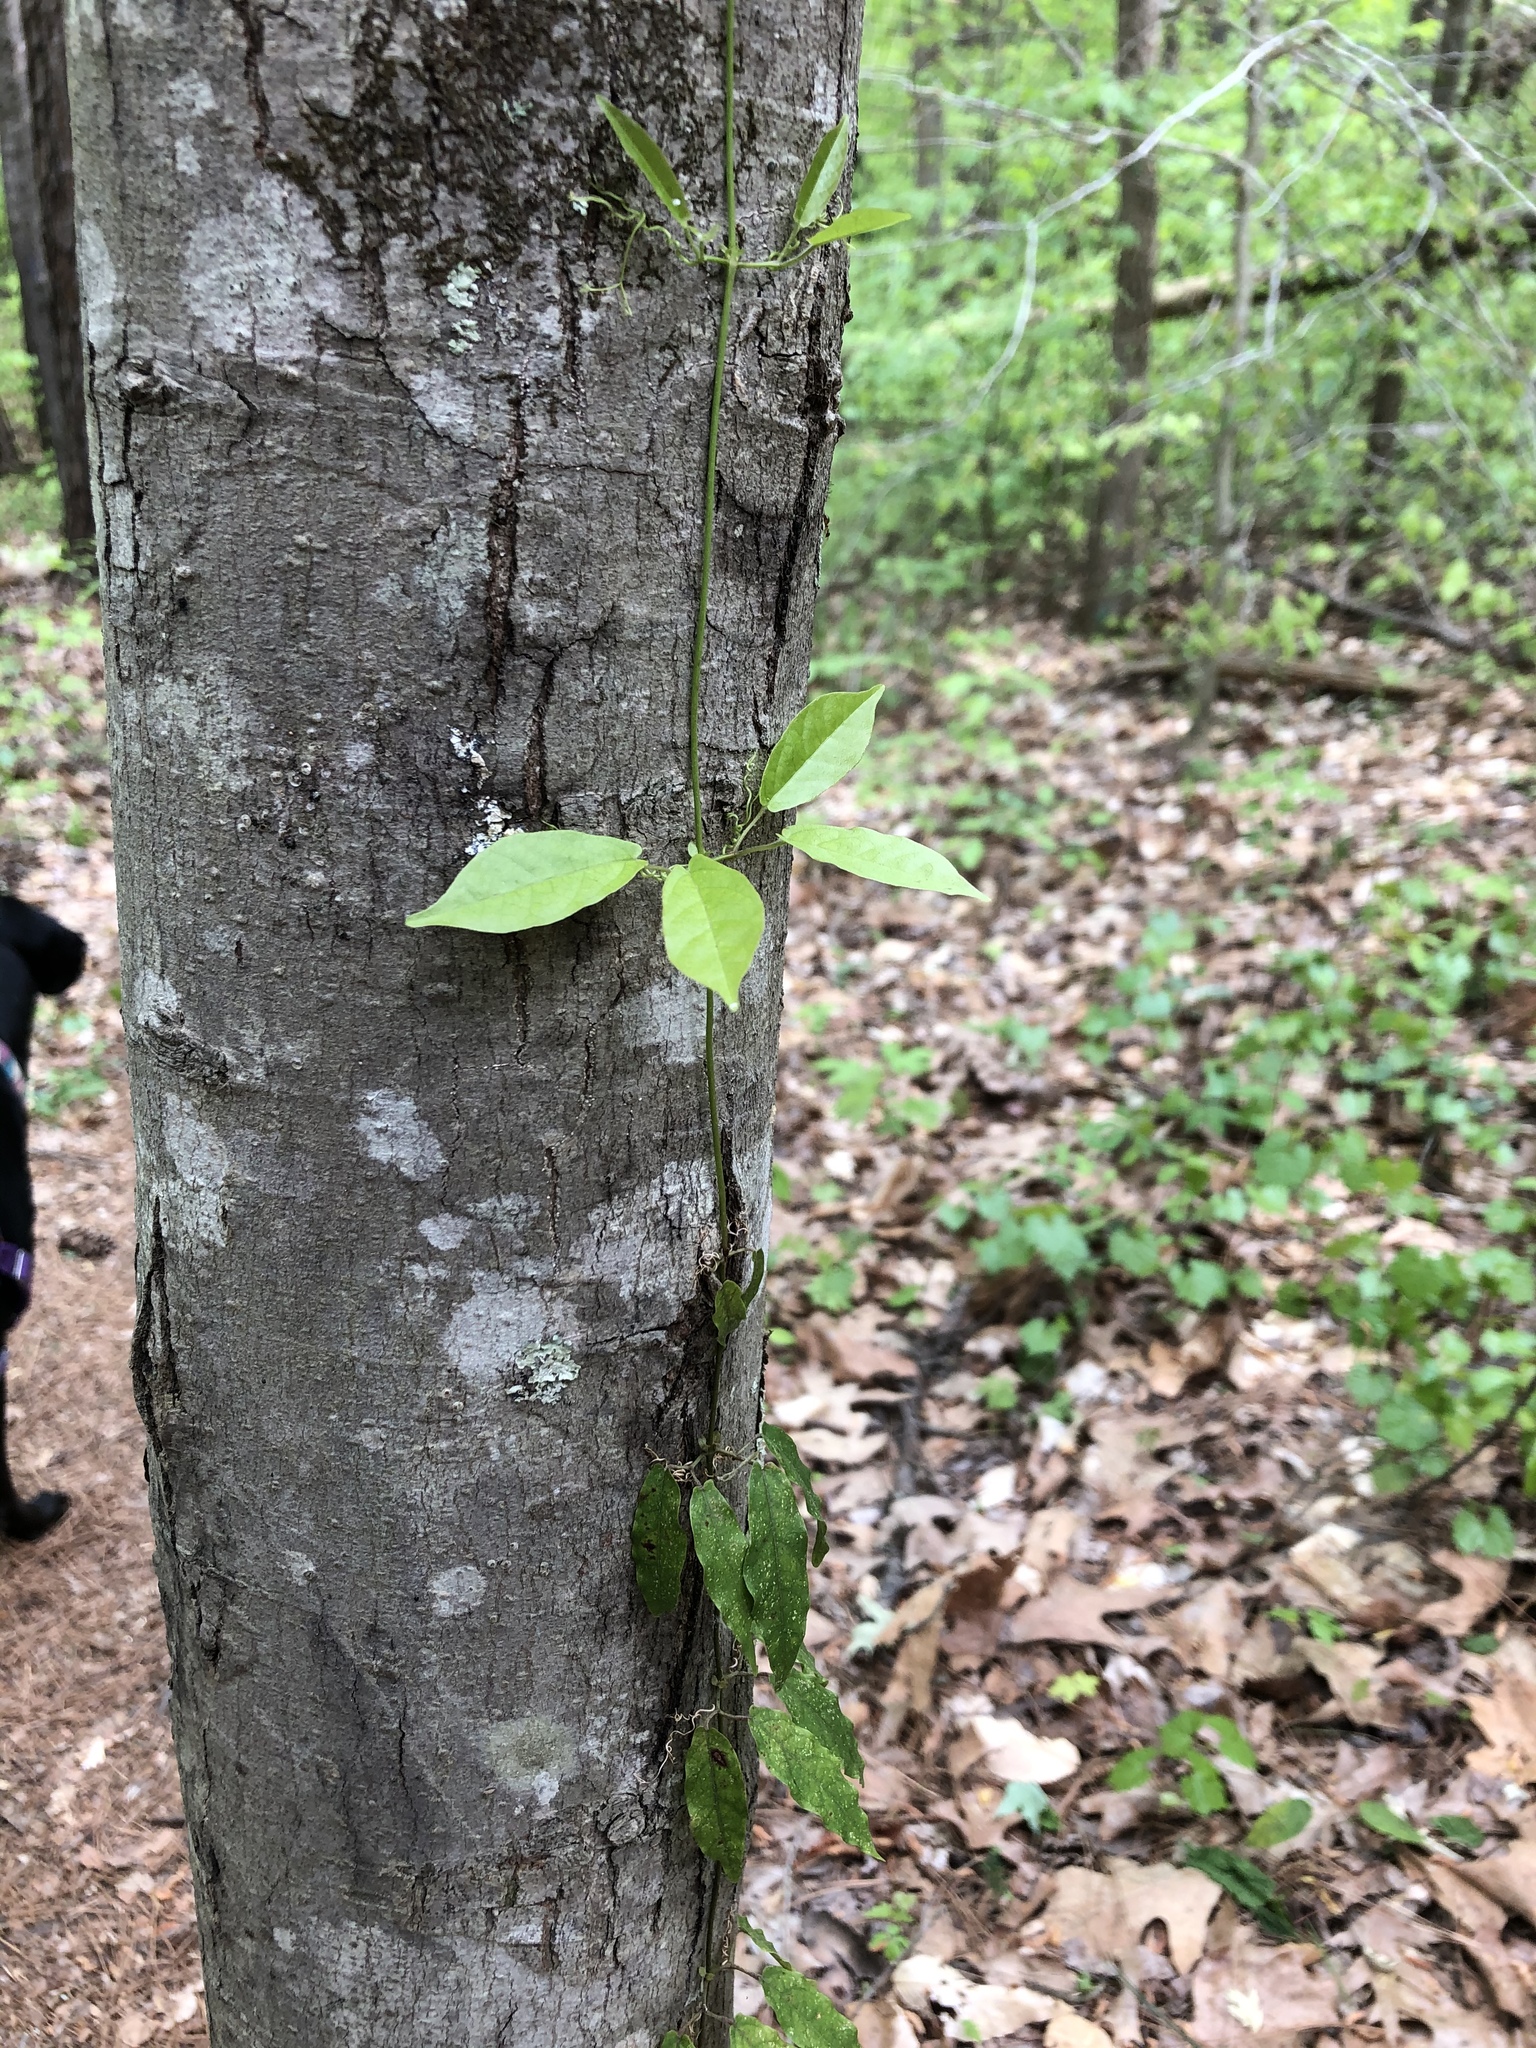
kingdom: Plantae
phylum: Tracheophyta
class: Magnoliopsida
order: Lamiales
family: Bignoniaceae
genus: Bignonia
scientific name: Bignonia capreolata
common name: Crossvine
